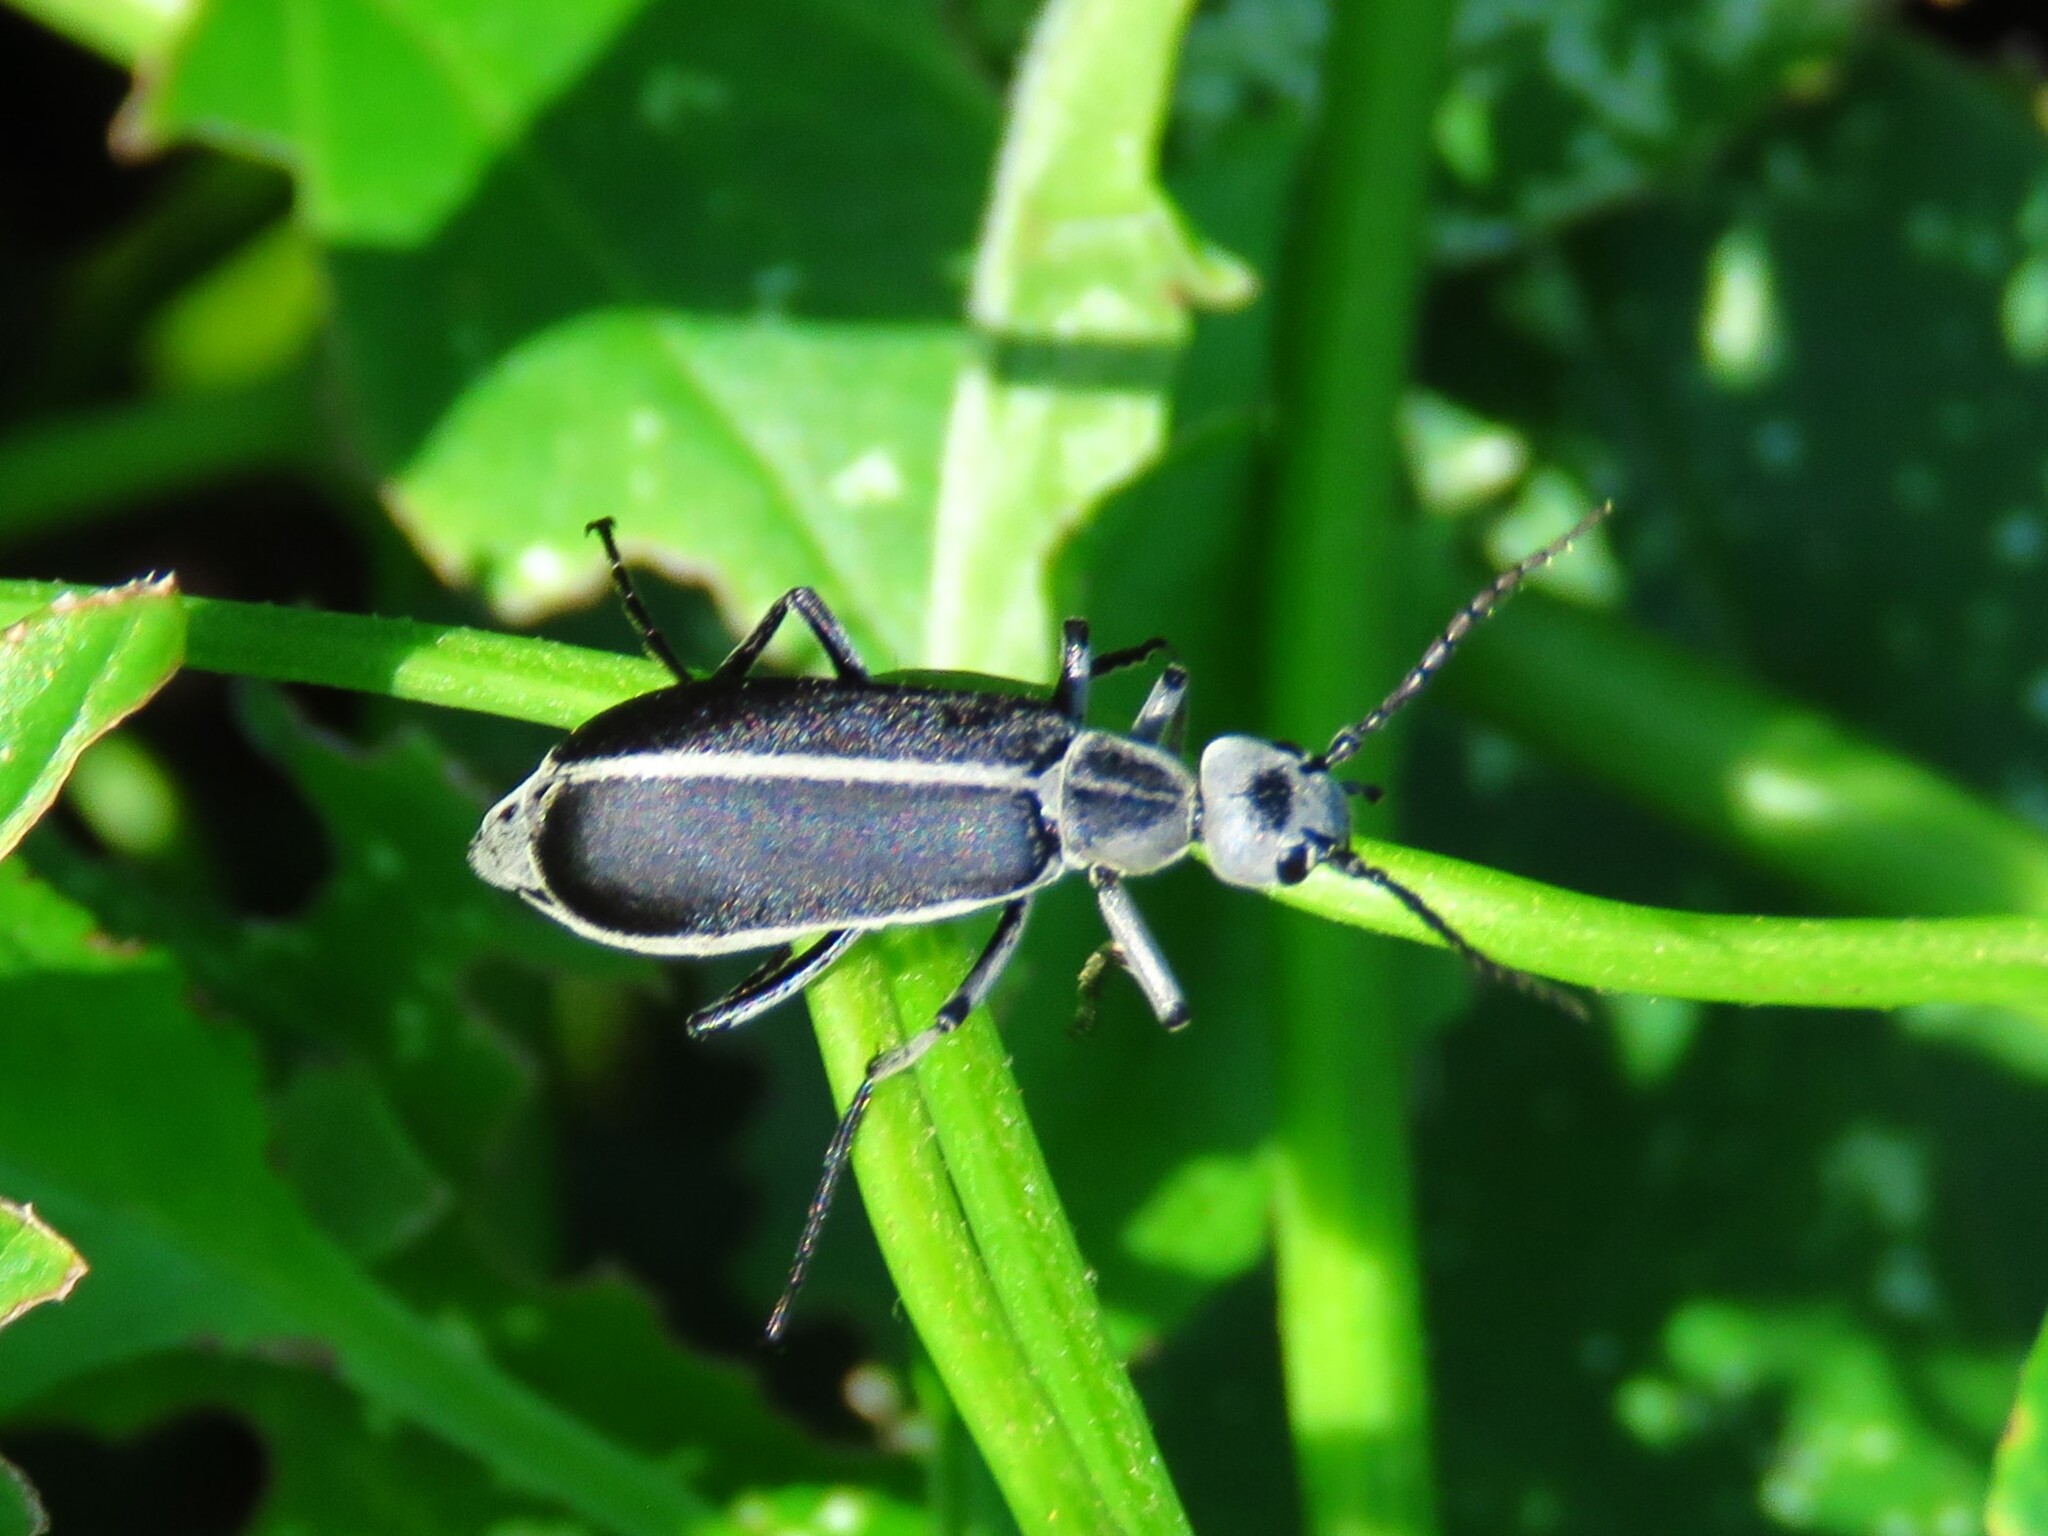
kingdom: Animalia
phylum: Arthropoda
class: Insecta
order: Coleoptera
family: Meloidae
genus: Epicauta
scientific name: Epicauta cinerea
